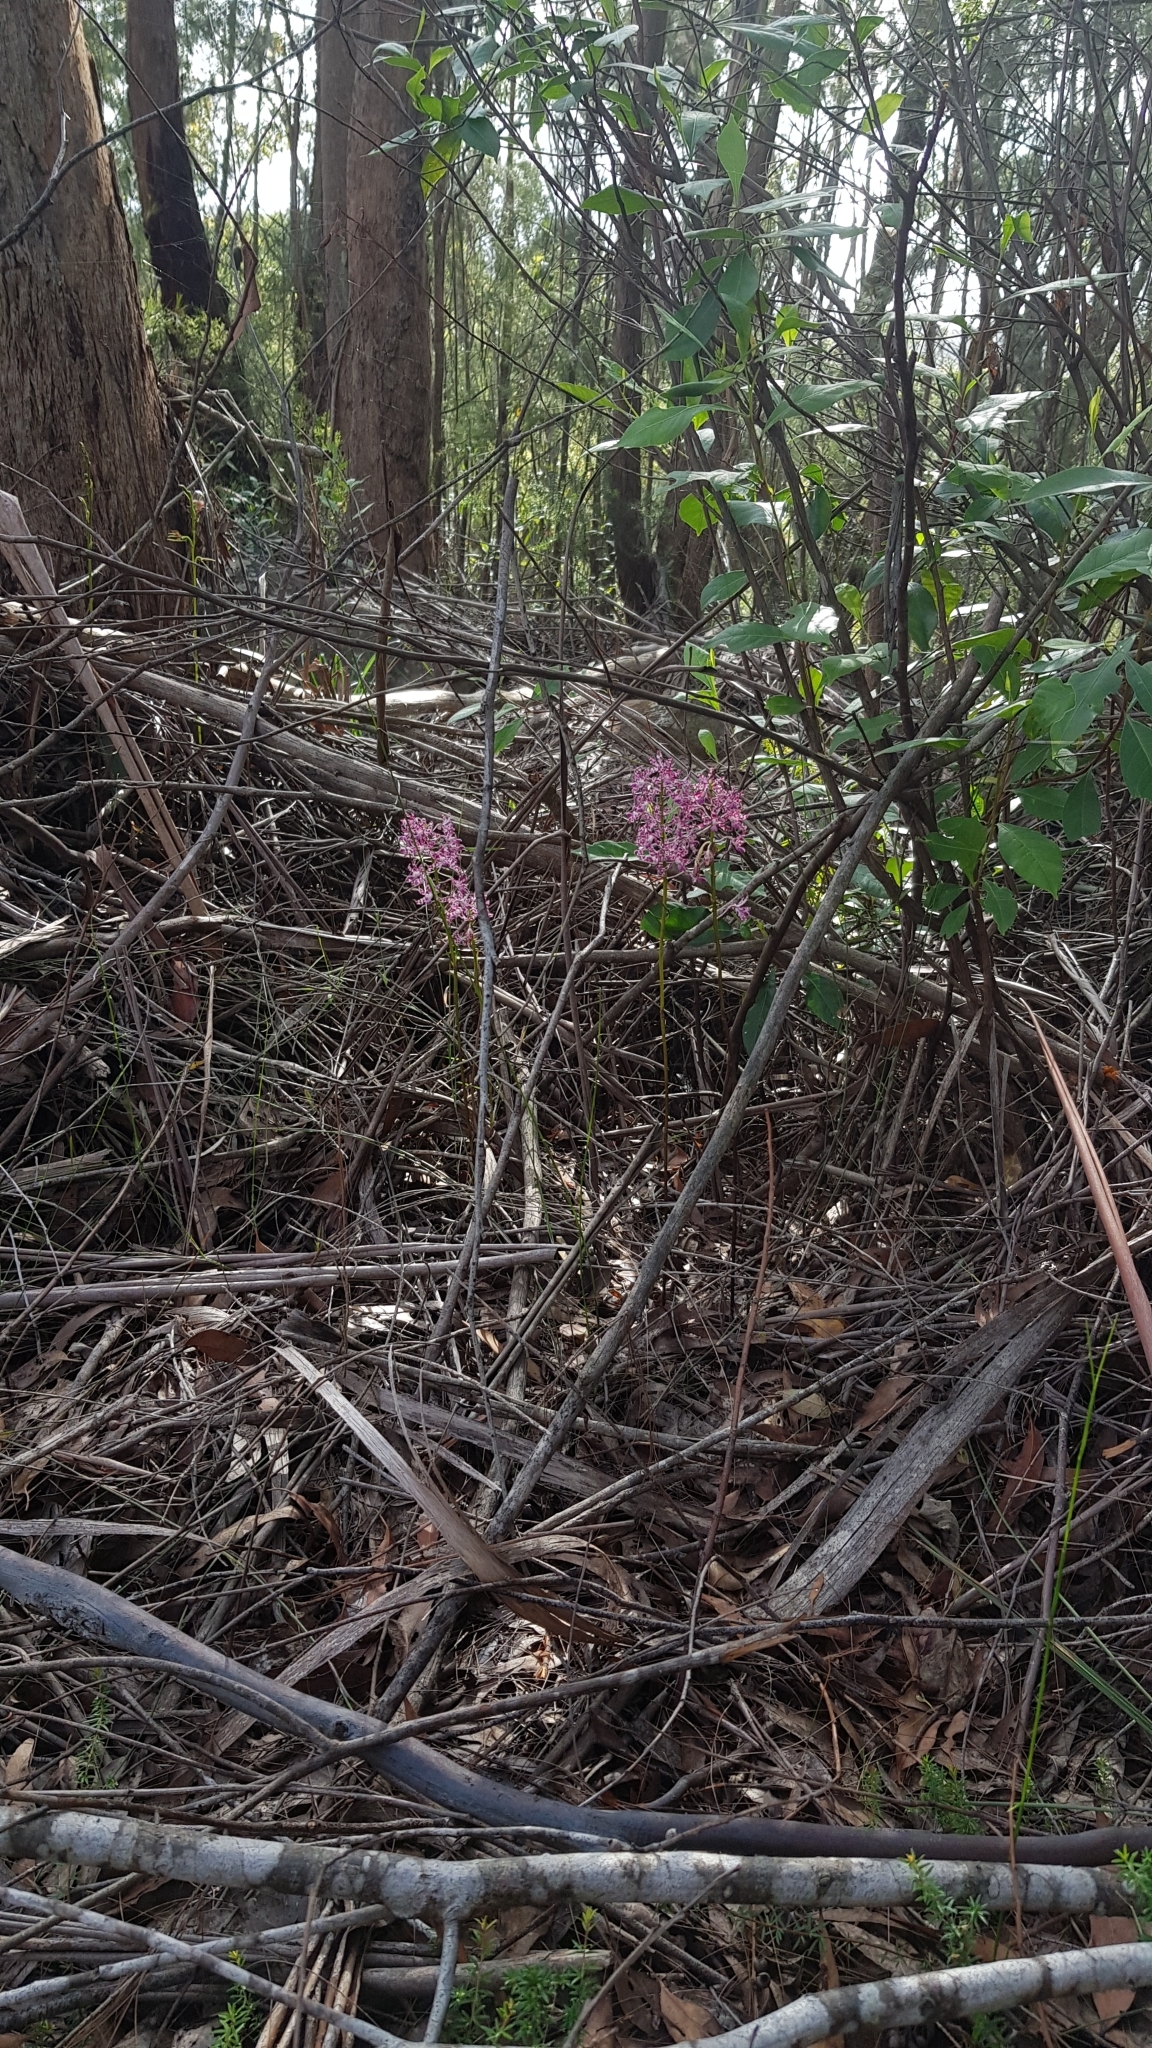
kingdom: Plantae
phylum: Tracheophyta
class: Liliopsida
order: Asparagales
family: Orchidaceae
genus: Dipodium
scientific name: Dipodium variegatum
